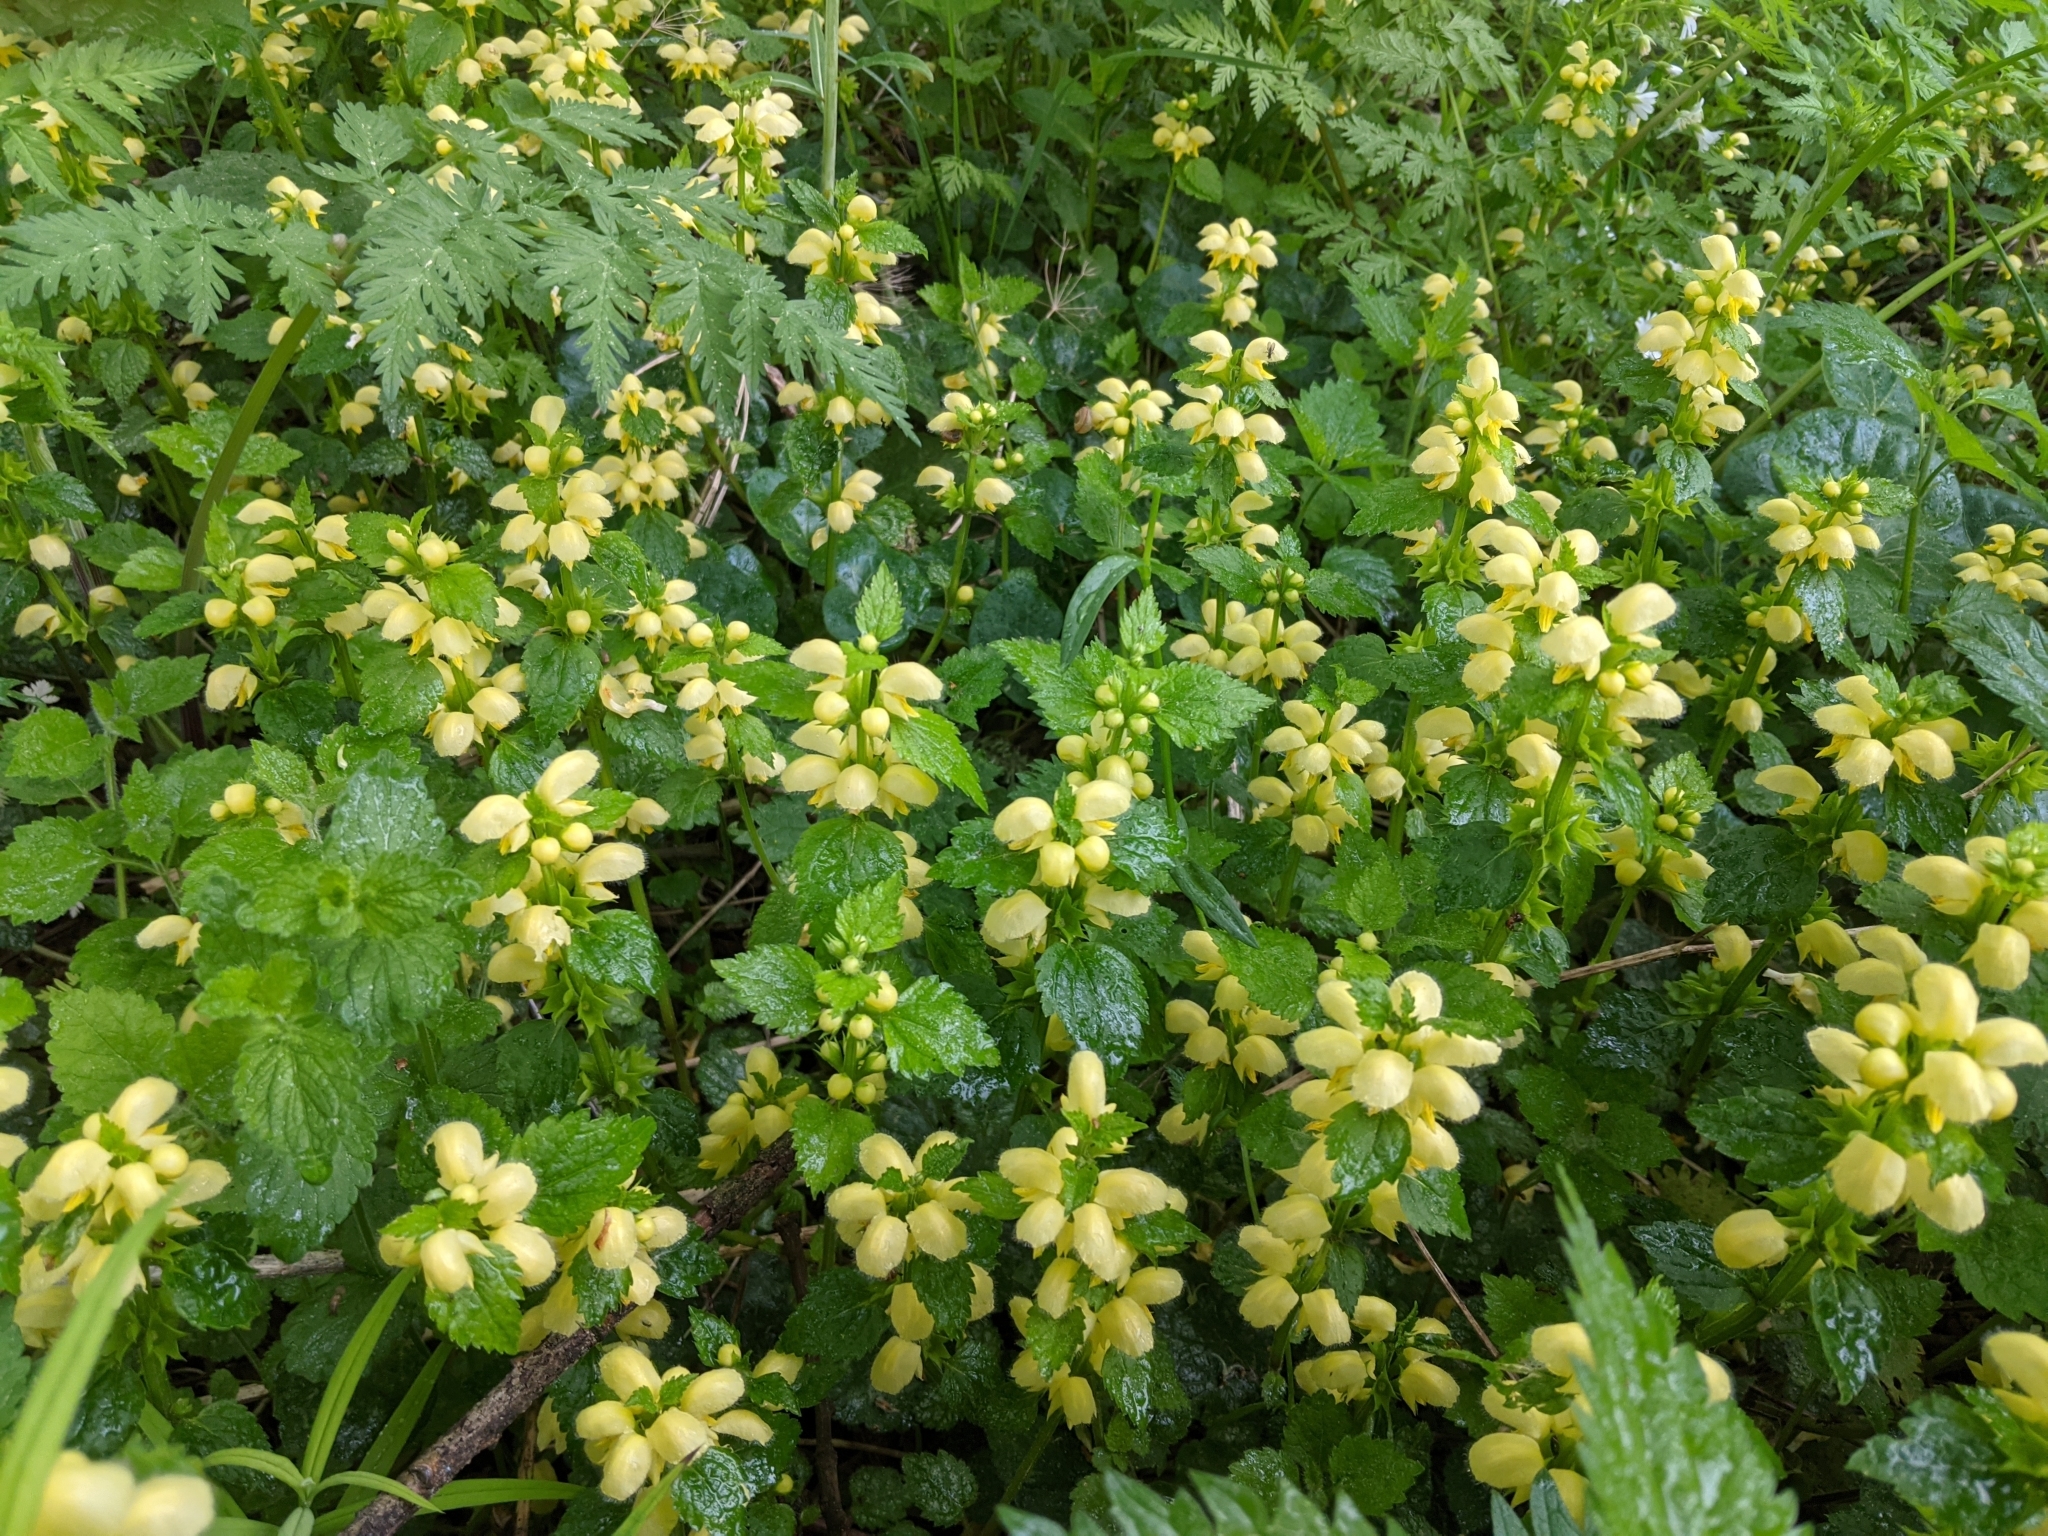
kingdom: Plantae
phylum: Tracheophyta
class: Magnoliopsida
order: Lamiales
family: Lamiaceae
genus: Lamium
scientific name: Lamium galeobdolon
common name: Yellow archangel
